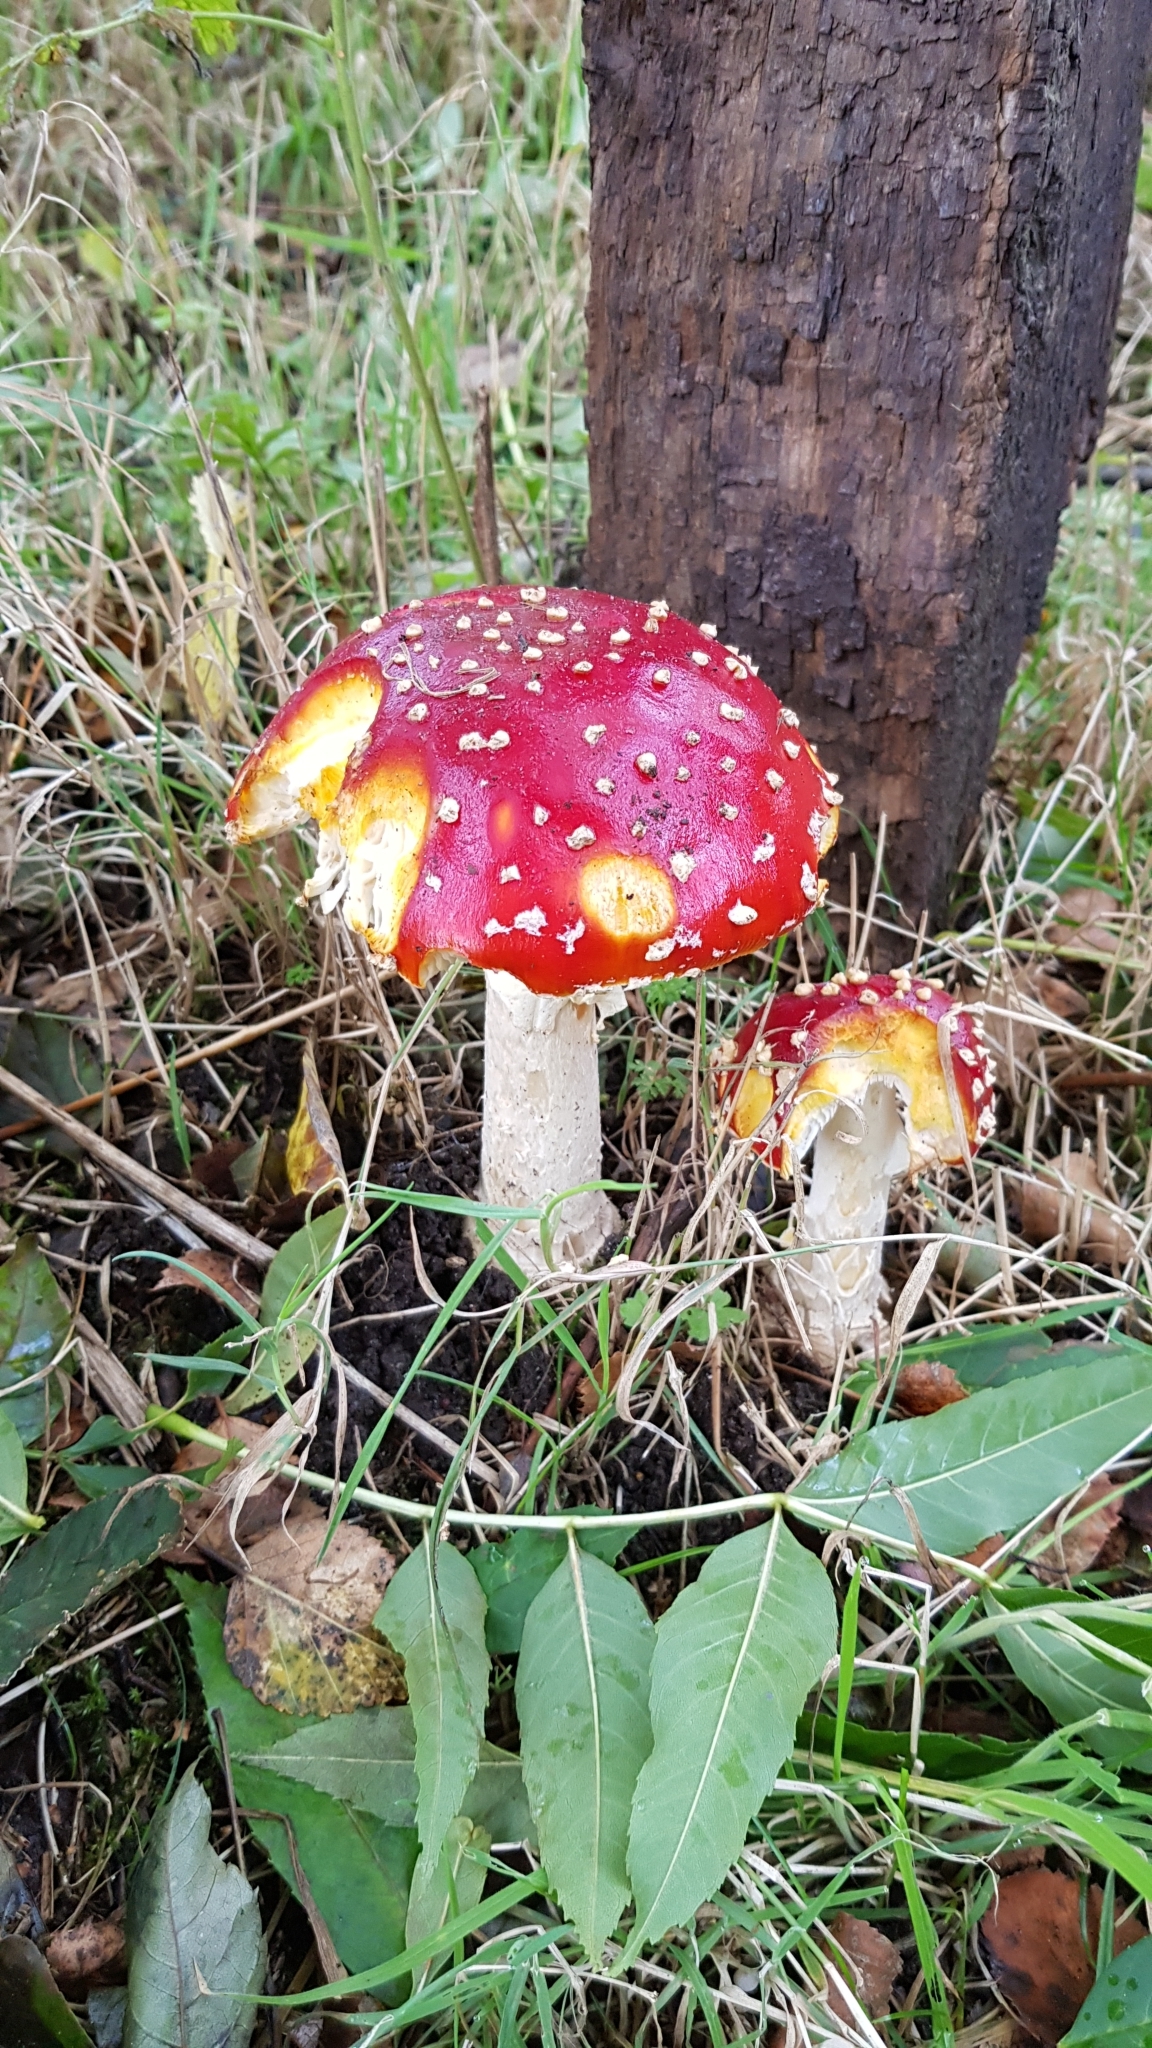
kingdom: Fungi
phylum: Basidiomycota
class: Agaricomycetes
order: Agaricales
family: Amanitaceae
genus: Amanita
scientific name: Amanita muscaria
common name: Fly agaric
